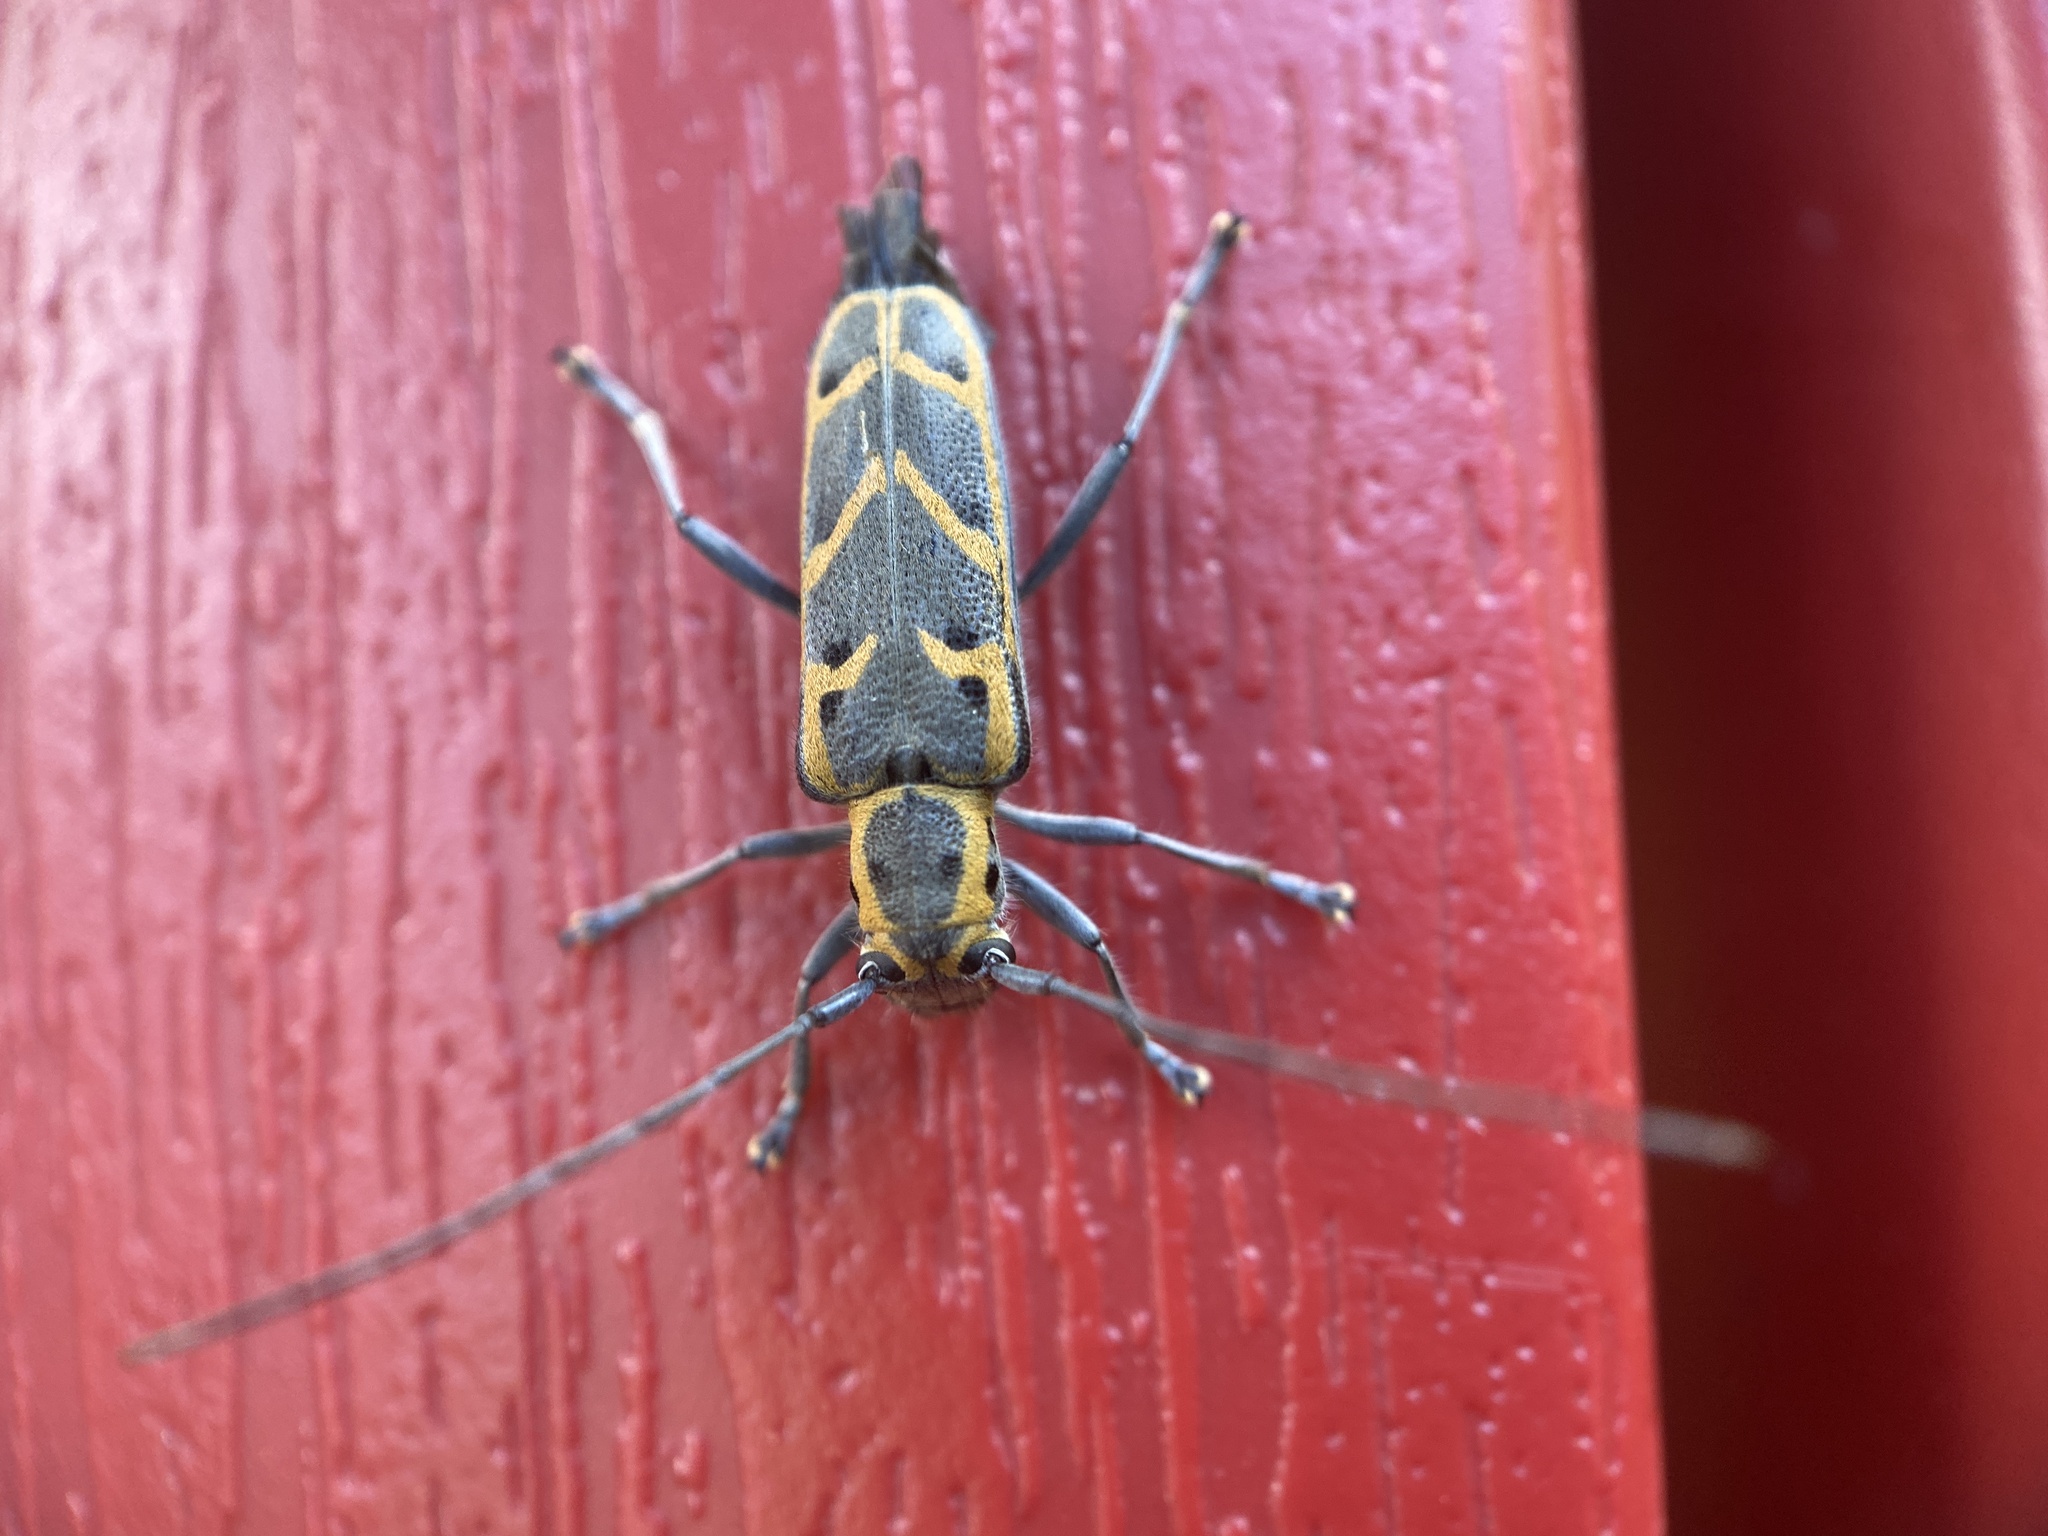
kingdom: Animalia
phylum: Arthropoda
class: Insecta
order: Coleoptera
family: Cerambycidae
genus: Saperda
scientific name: Saperda tridentata
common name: Elm borer
